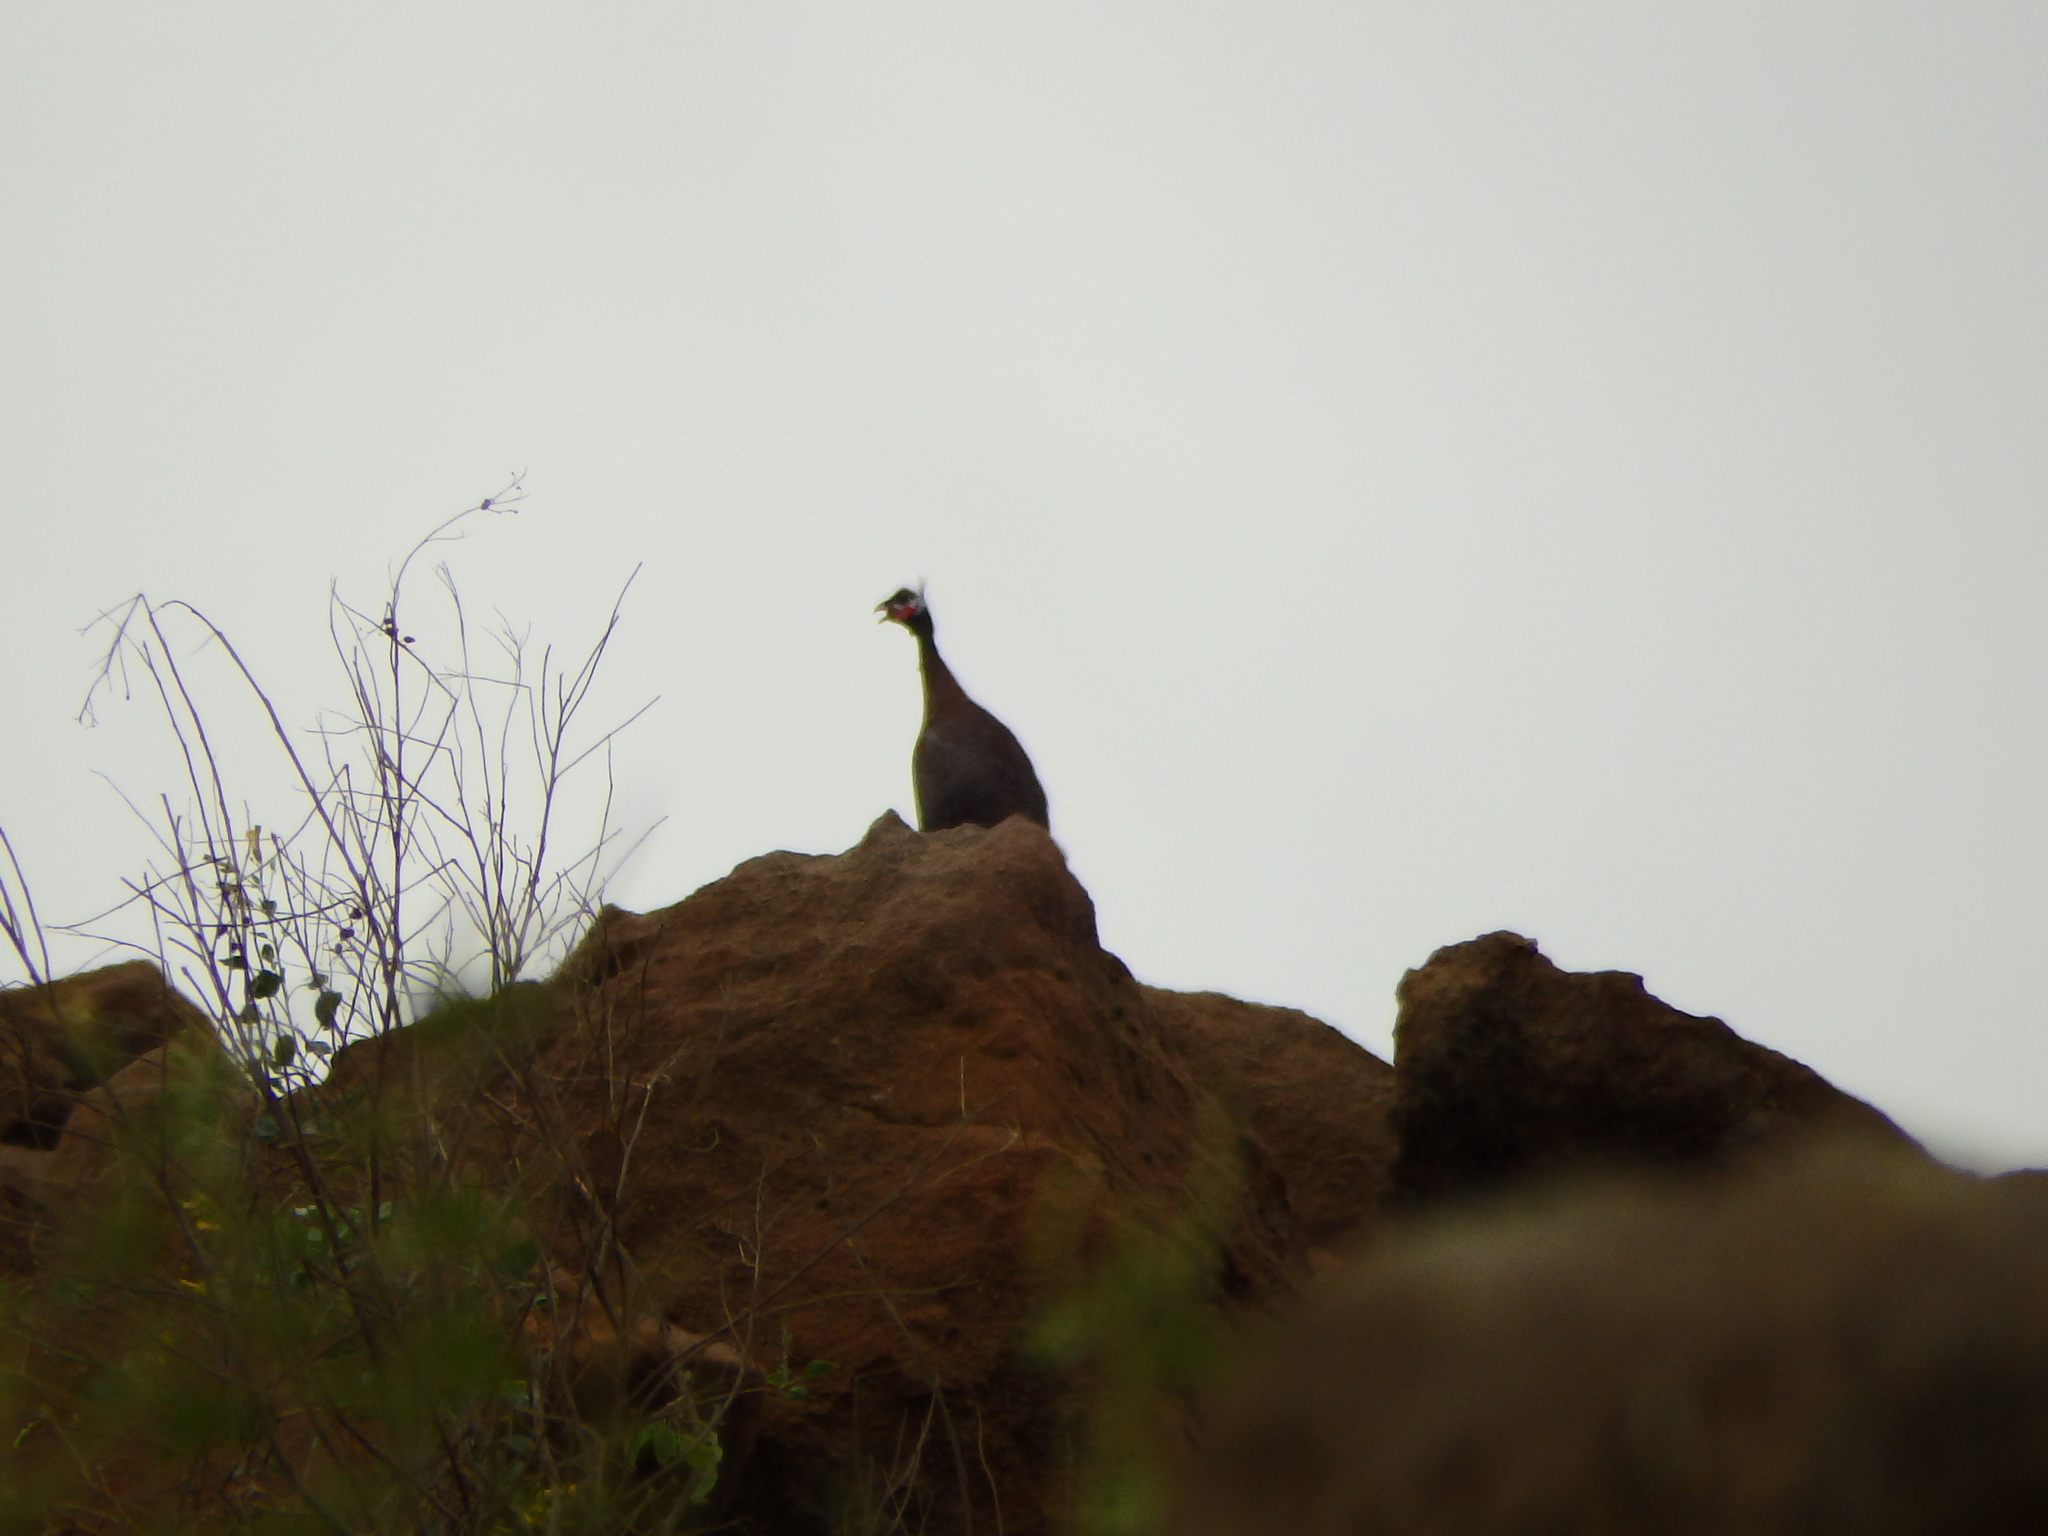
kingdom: Animalia
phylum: Chordata
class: Aves
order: Galliformes
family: Numididae
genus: Numida
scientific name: Numida meleagris
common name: Helmeted guineafowl
